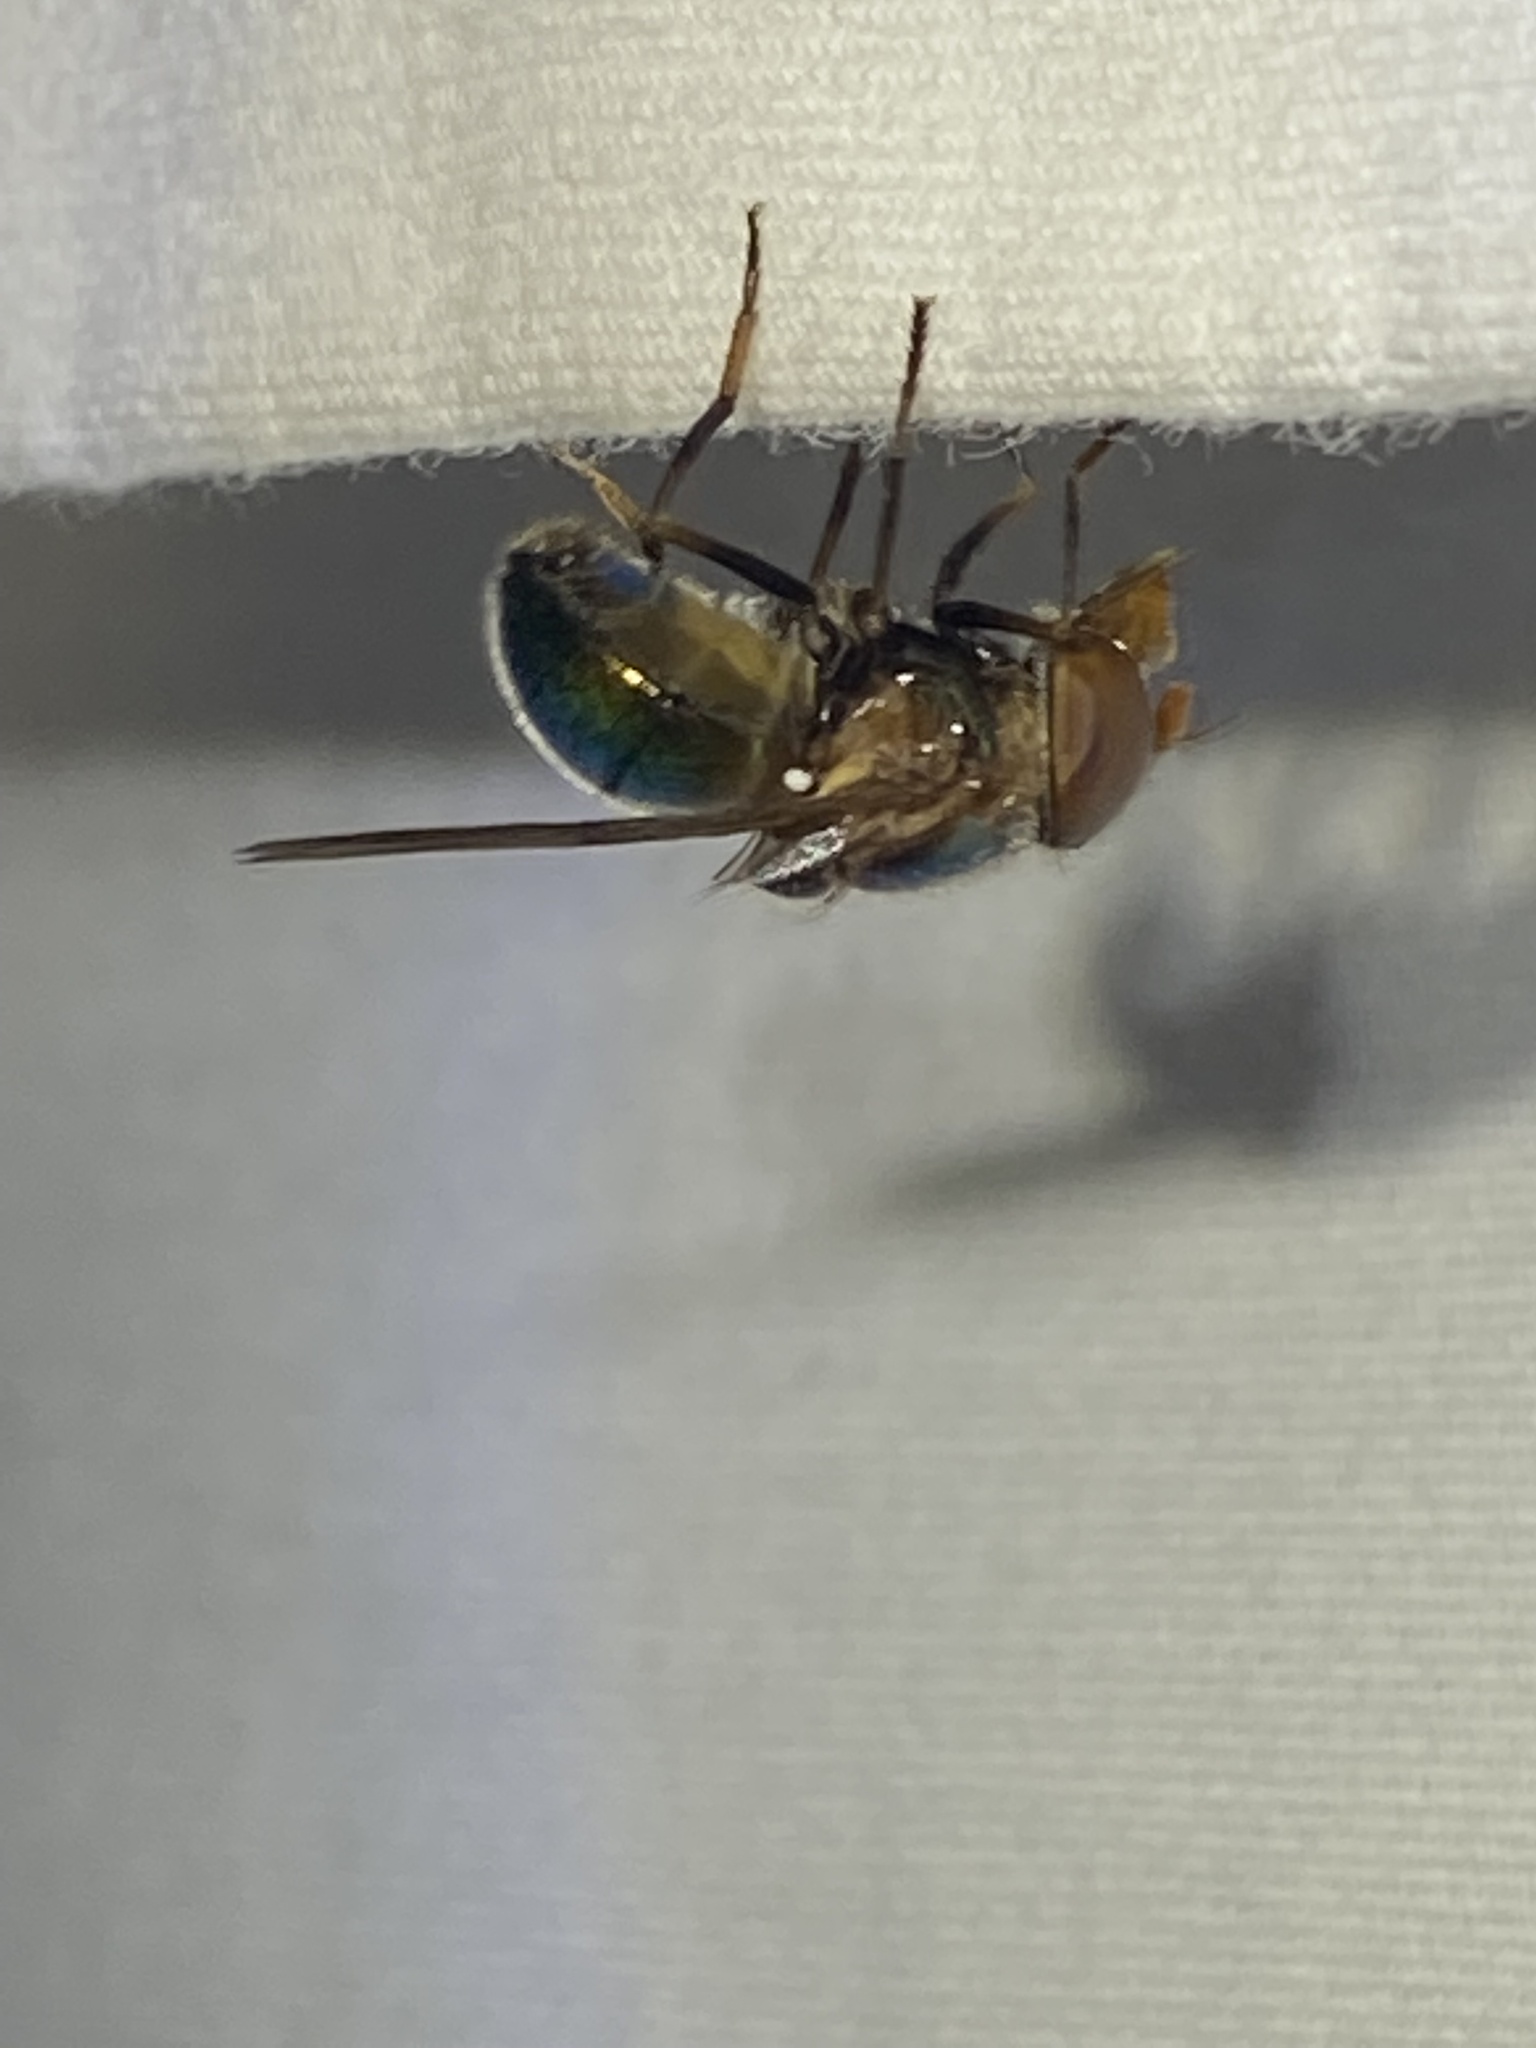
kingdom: Animalia
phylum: Arthropoda
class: Insecta
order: Diptera
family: Syrphidae
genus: Copestylum
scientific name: Copestylum vesicularium
